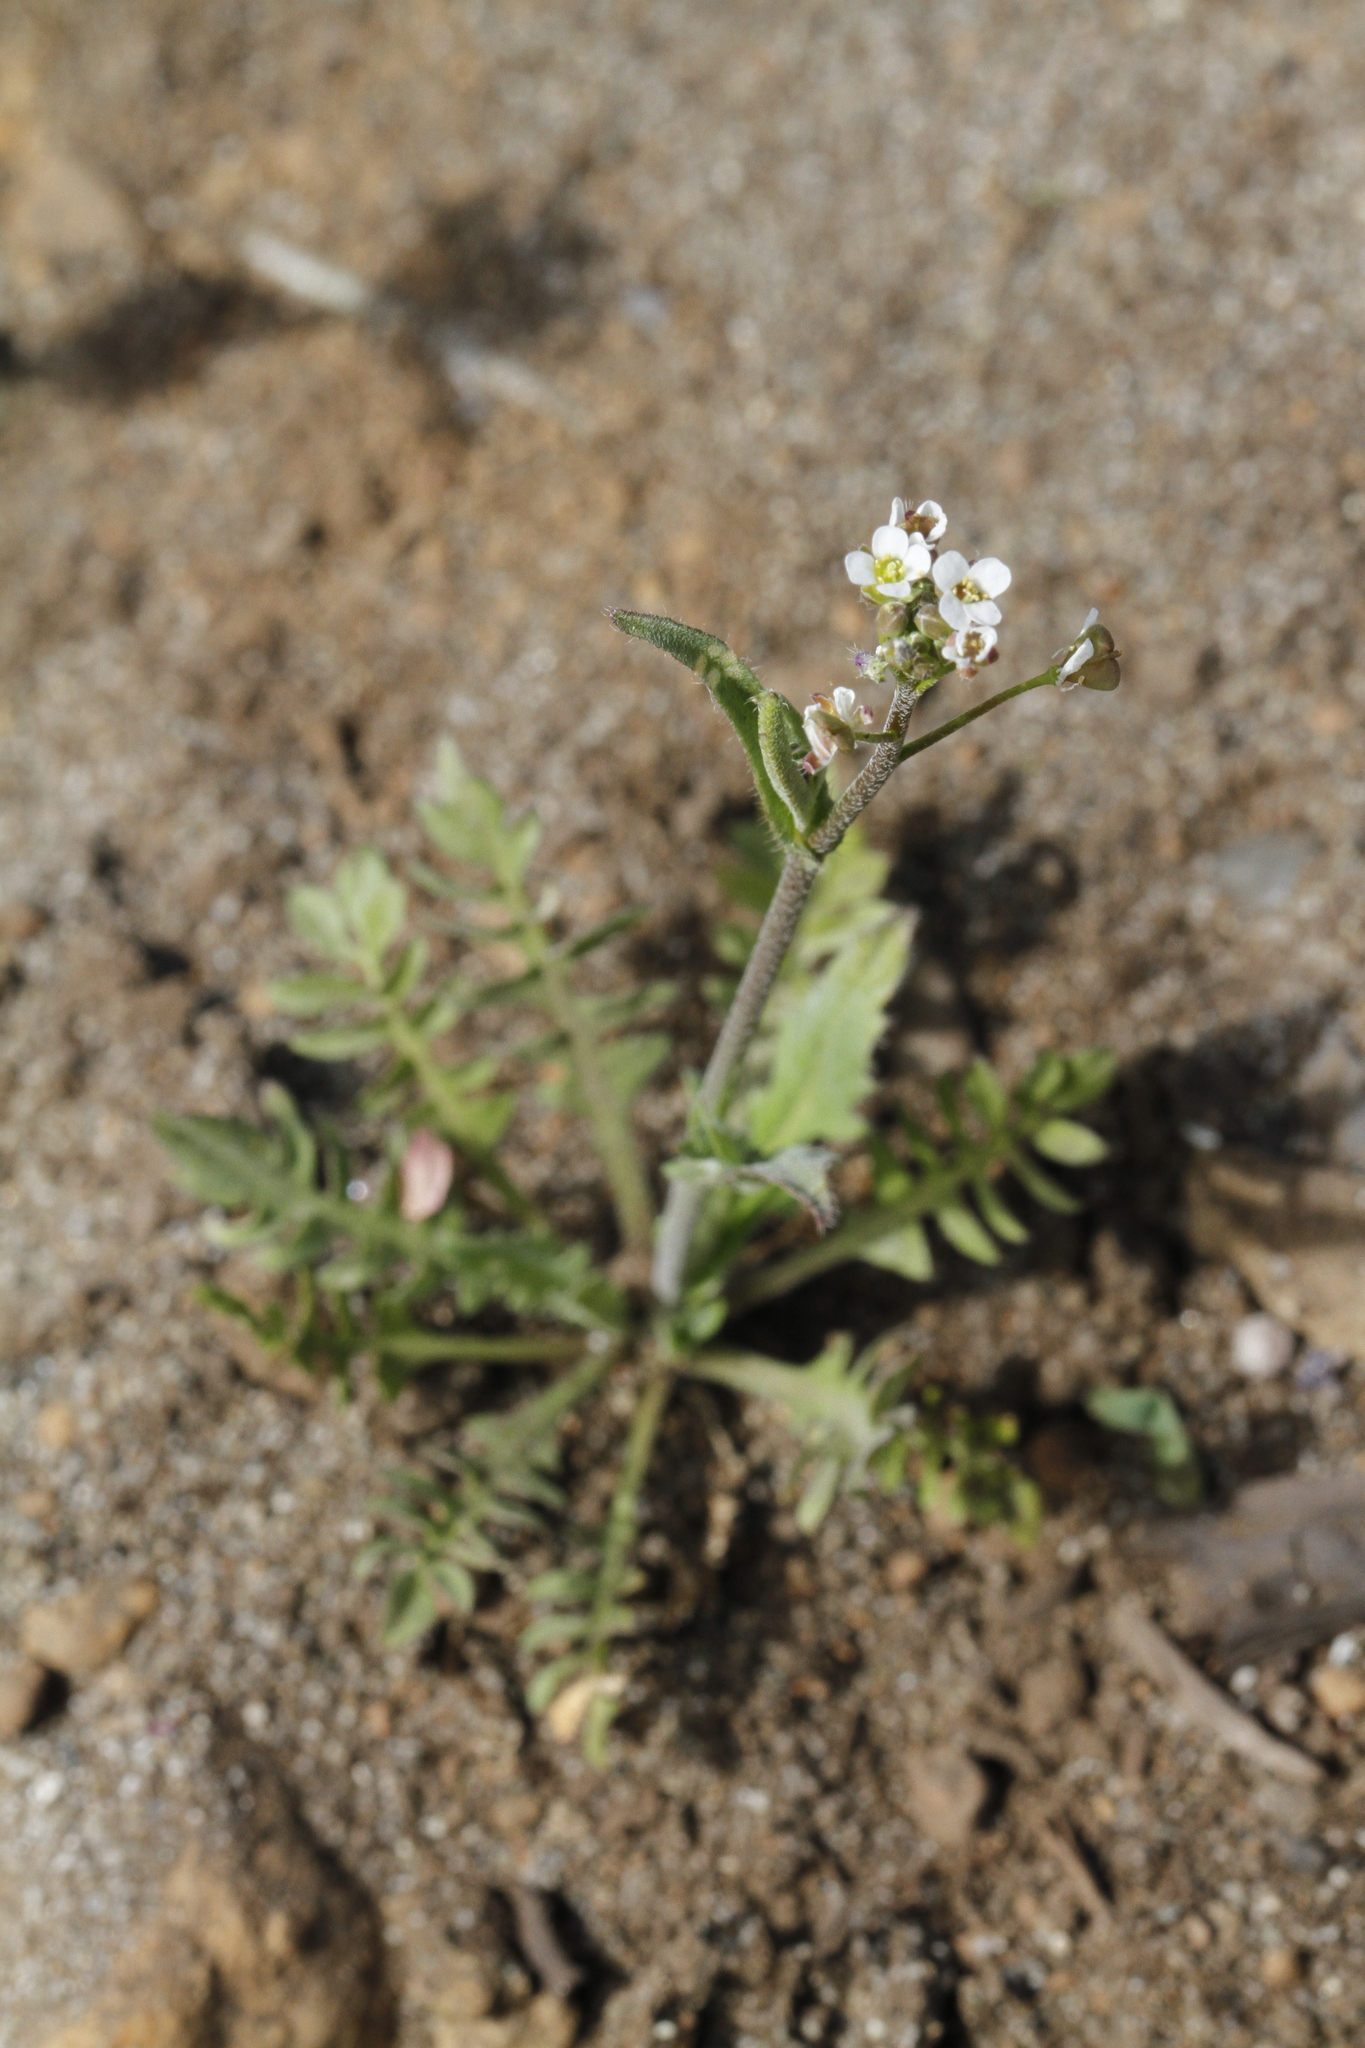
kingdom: Plantae
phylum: Tracheophyta
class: Magnoliopsida
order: Brassicales
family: Brassicaceae
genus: Capsella
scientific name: Capsella bursa-pastoris
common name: Shepherd's purse
